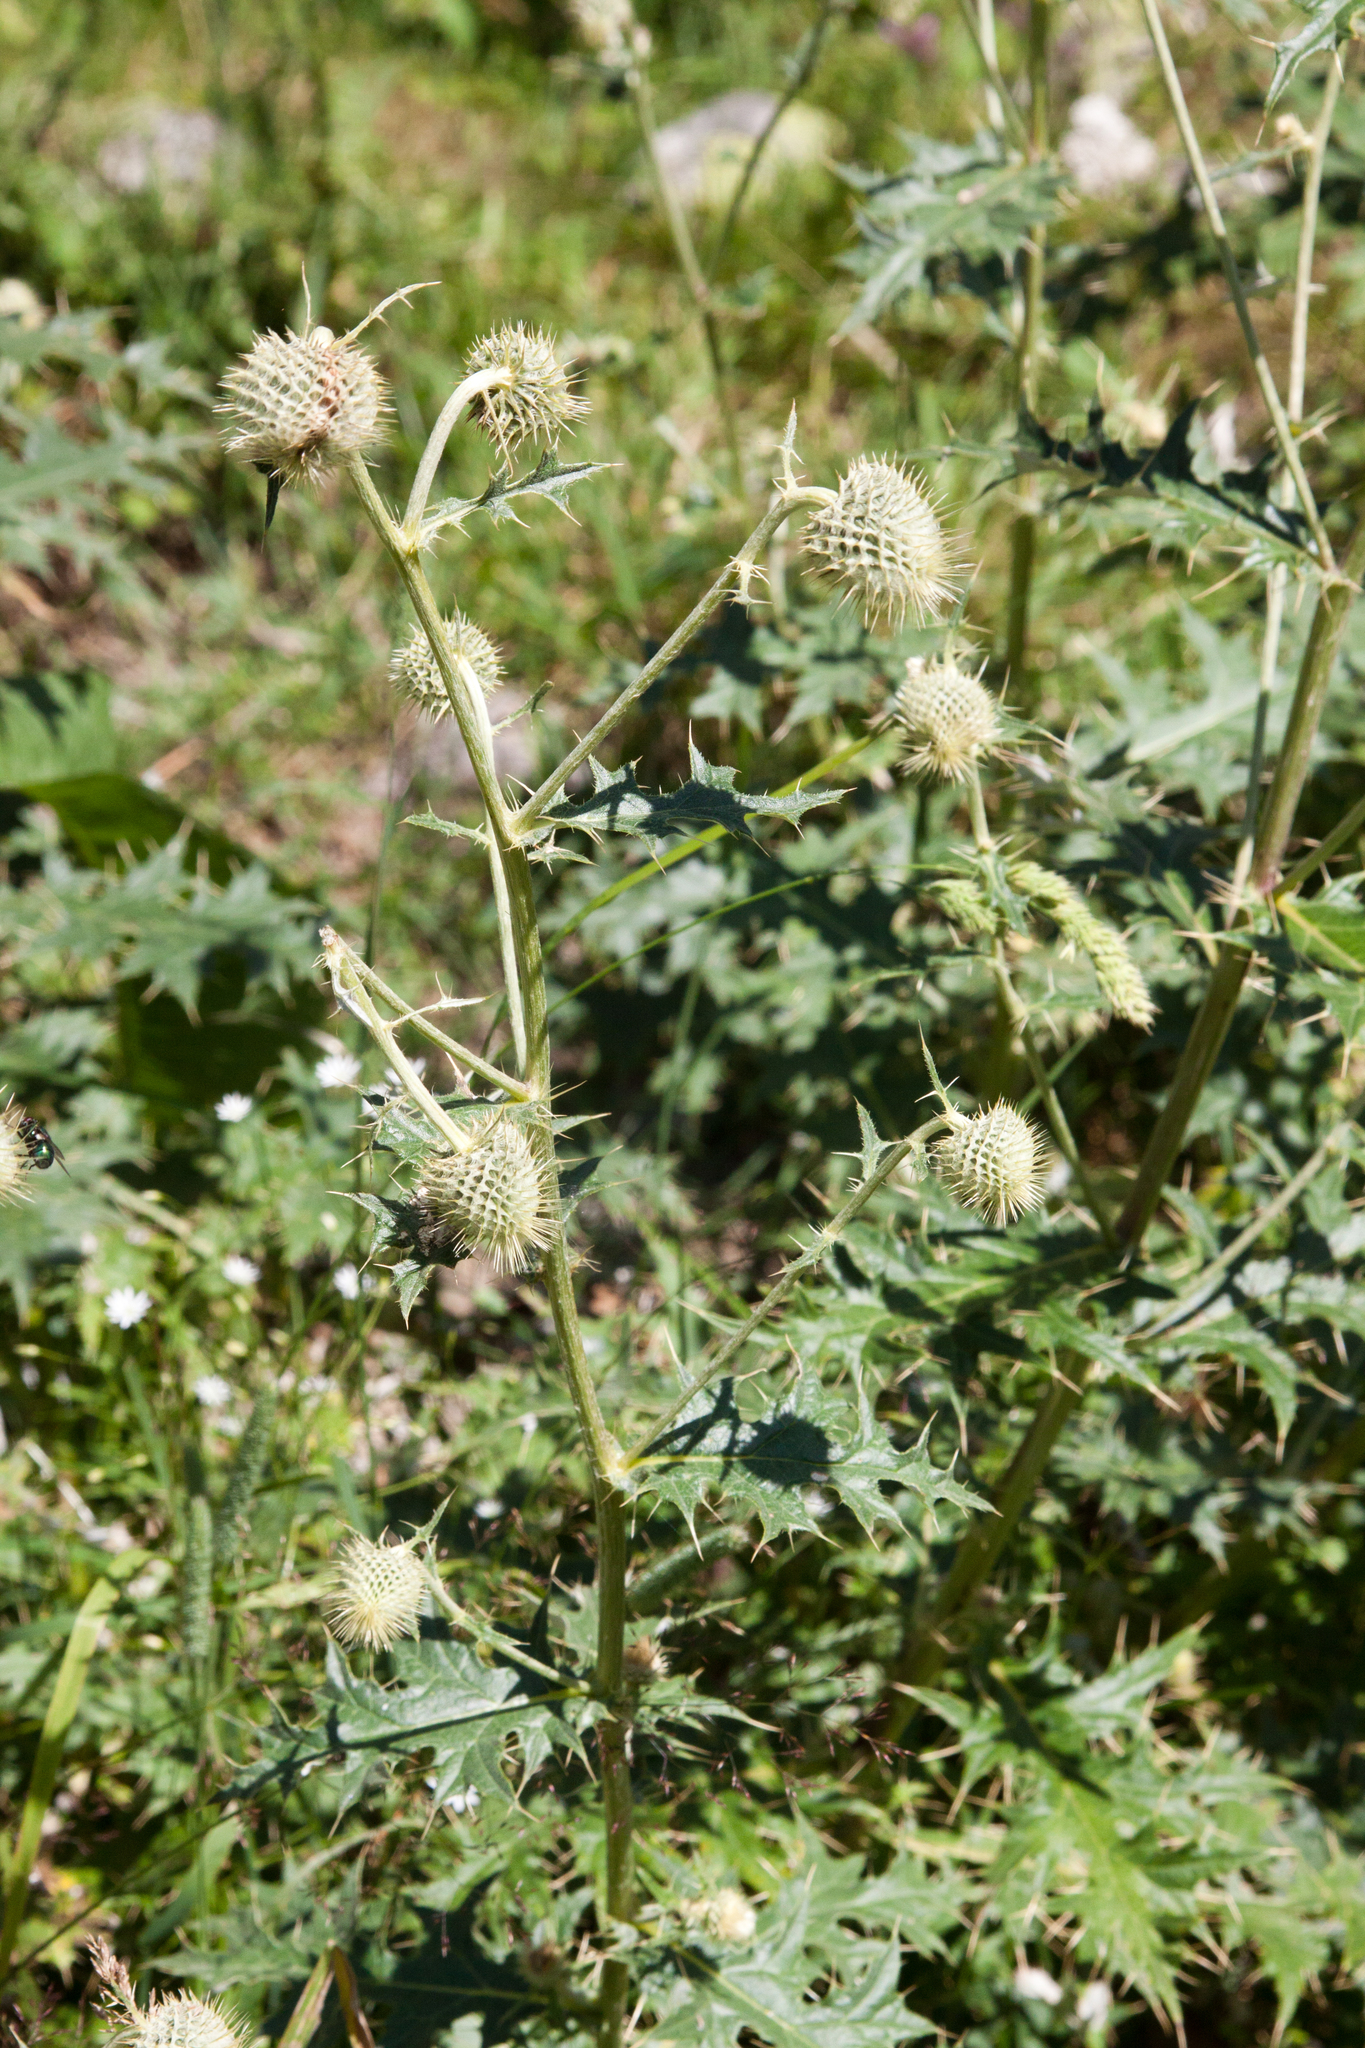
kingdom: Plantae
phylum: Tracheophyta
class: Magnoliopsida
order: Asterales
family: Asteraceae
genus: Lophiolepis
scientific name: Lophiolepis chlorocoma
